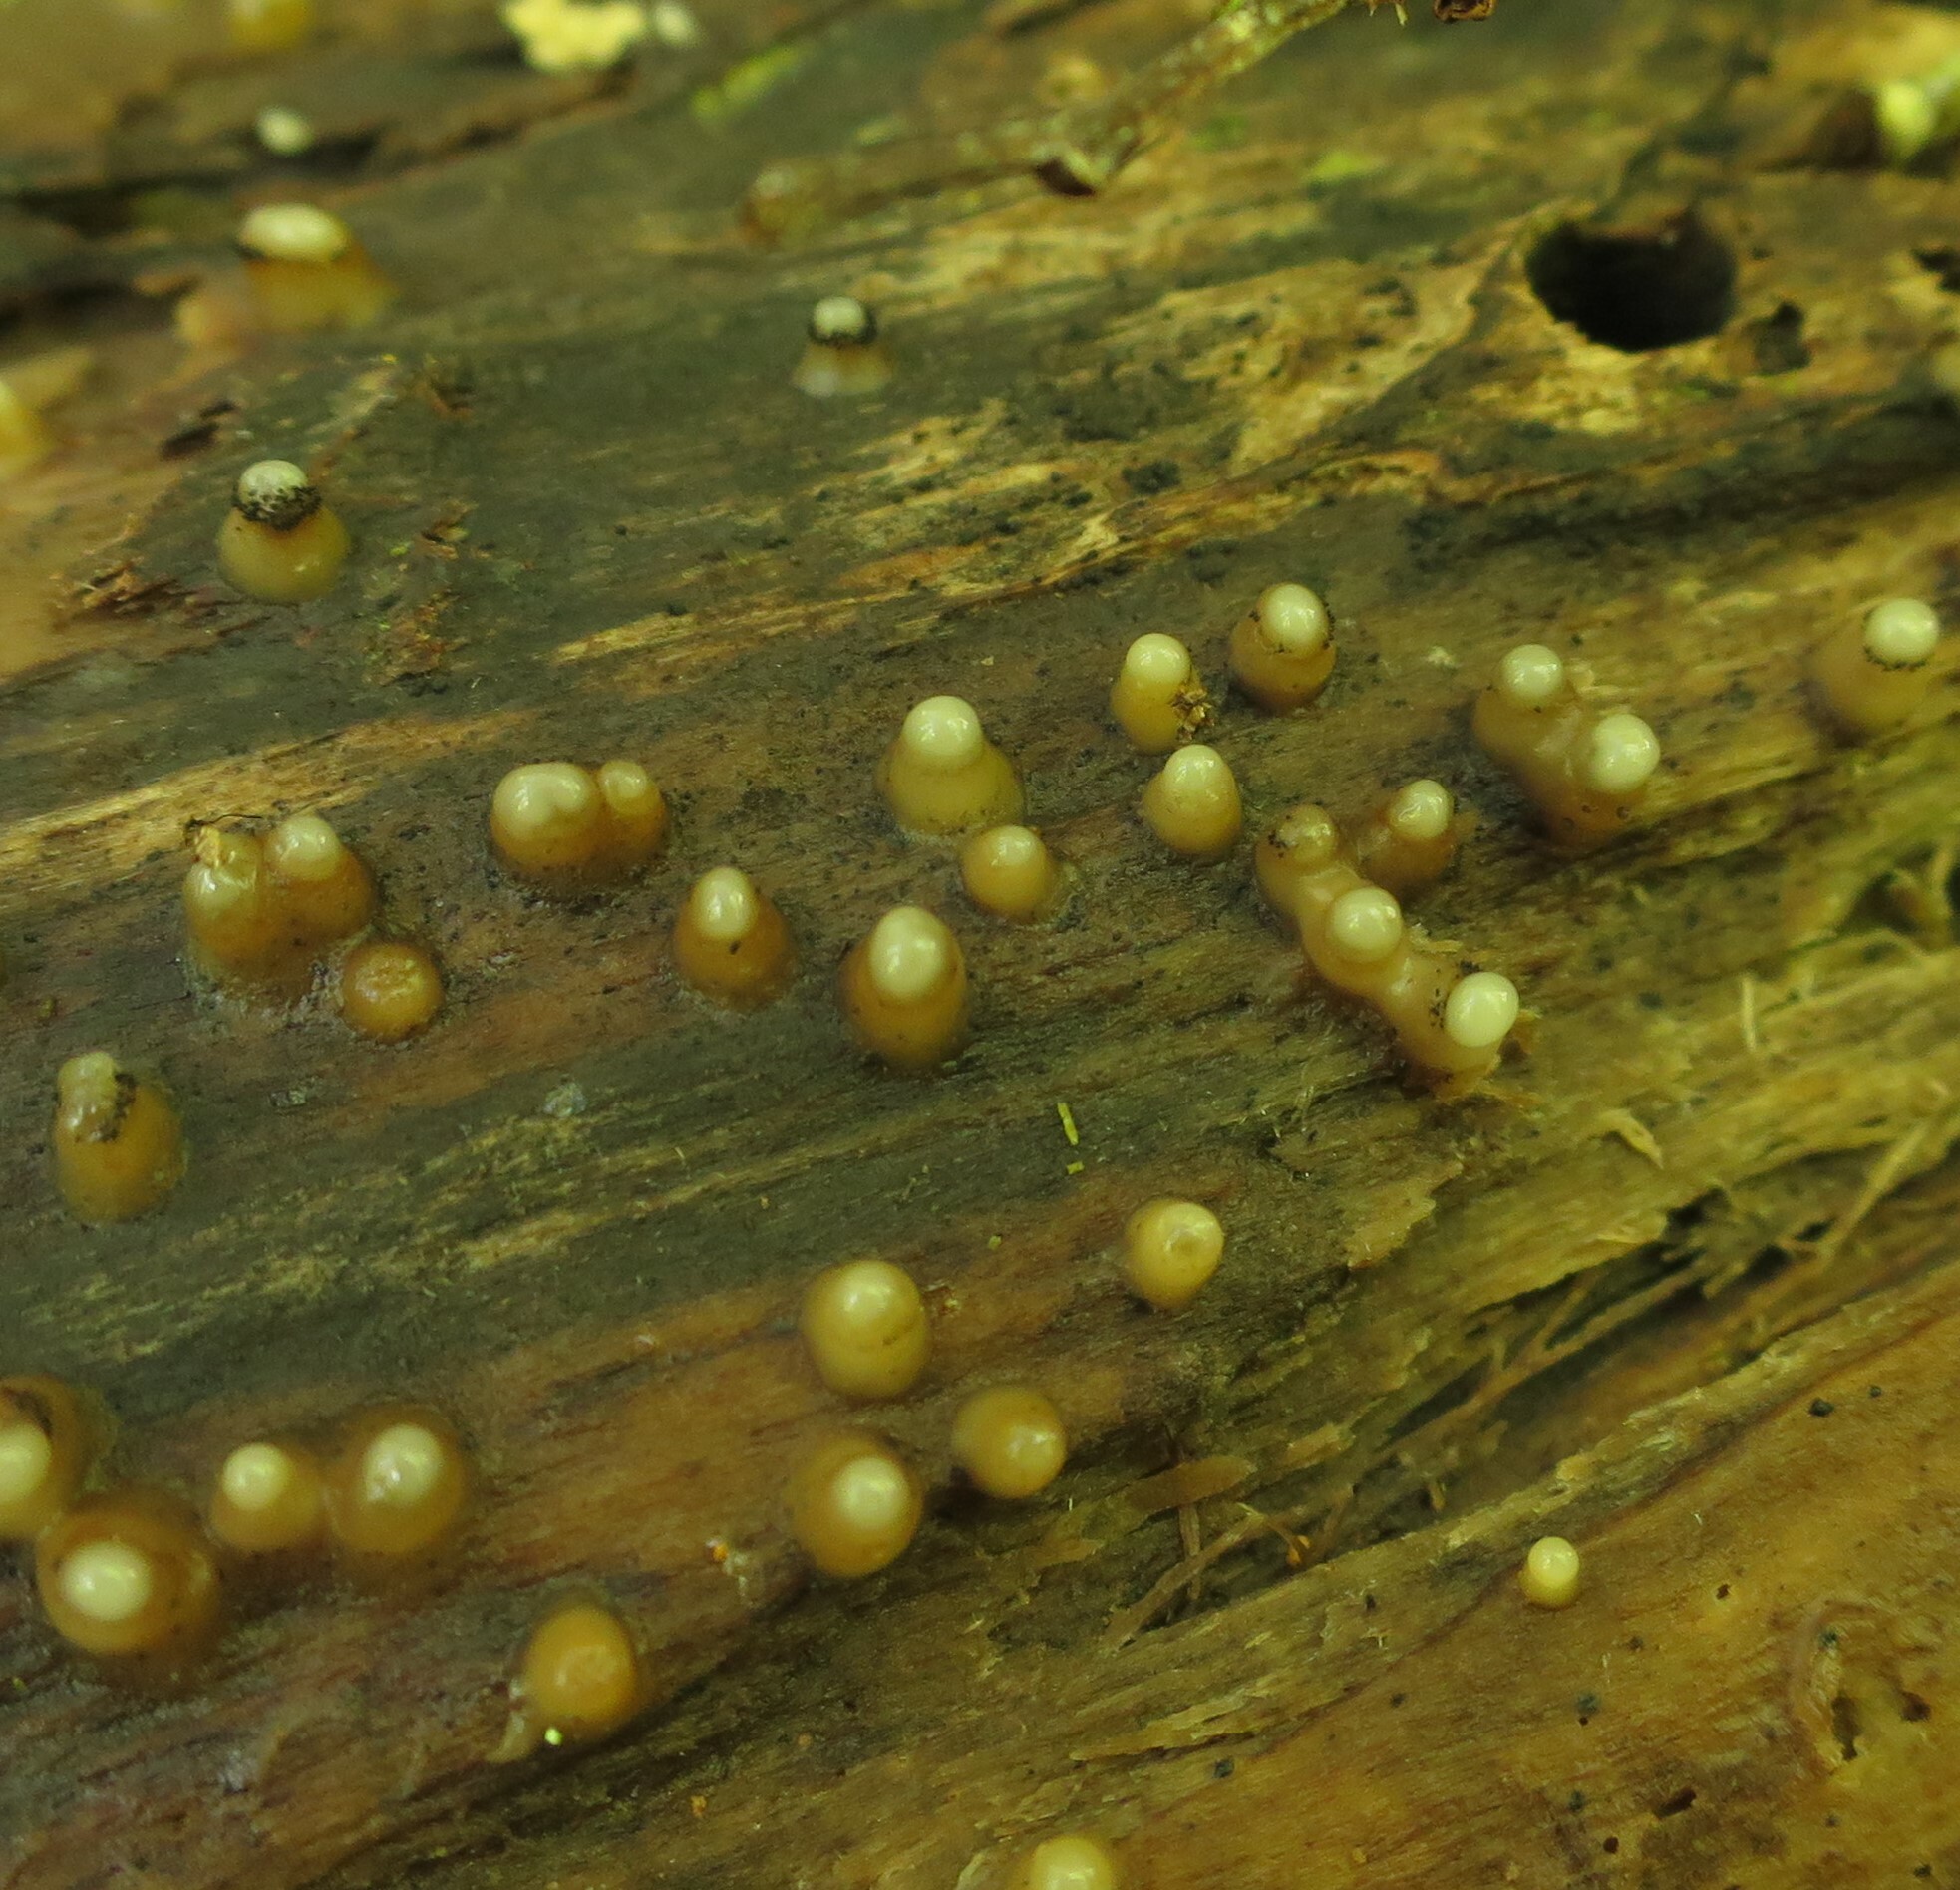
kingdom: Fungi
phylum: Basidiomycota
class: Atractiellomycetes
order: Atractiellales
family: Phleogenaceae
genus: Helicogloea
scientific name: Helicogloea compressa
